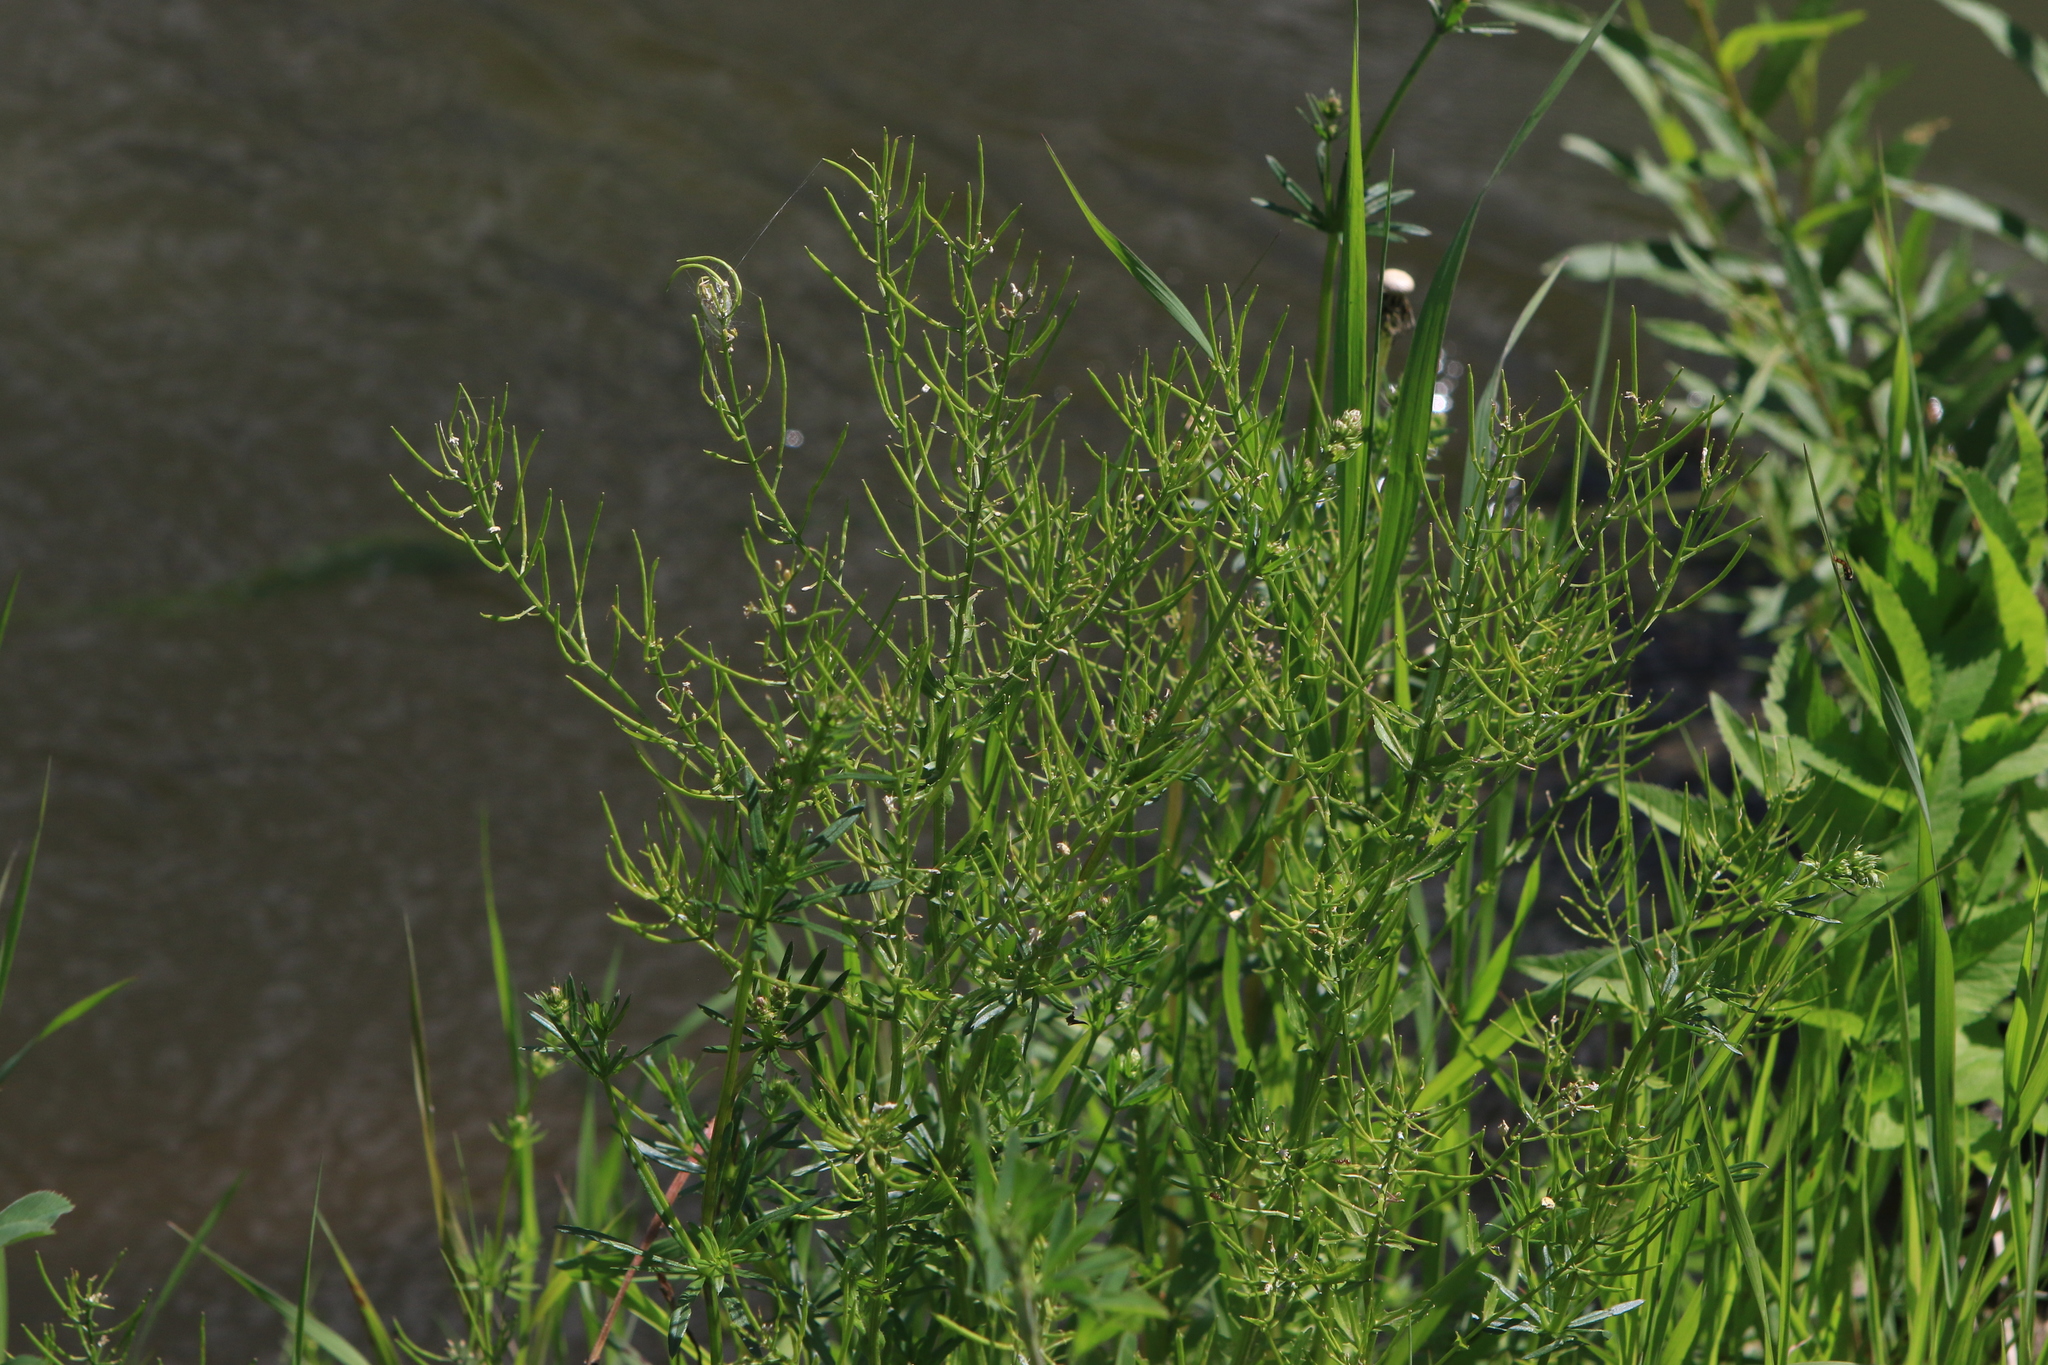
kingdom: Plantae
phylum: Tracheophyta
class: Magnoliopsida
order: Brassicales
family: Brassicaceae
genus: Barbarea
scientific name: Barbarea vulgaris
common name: Cressy-greens
